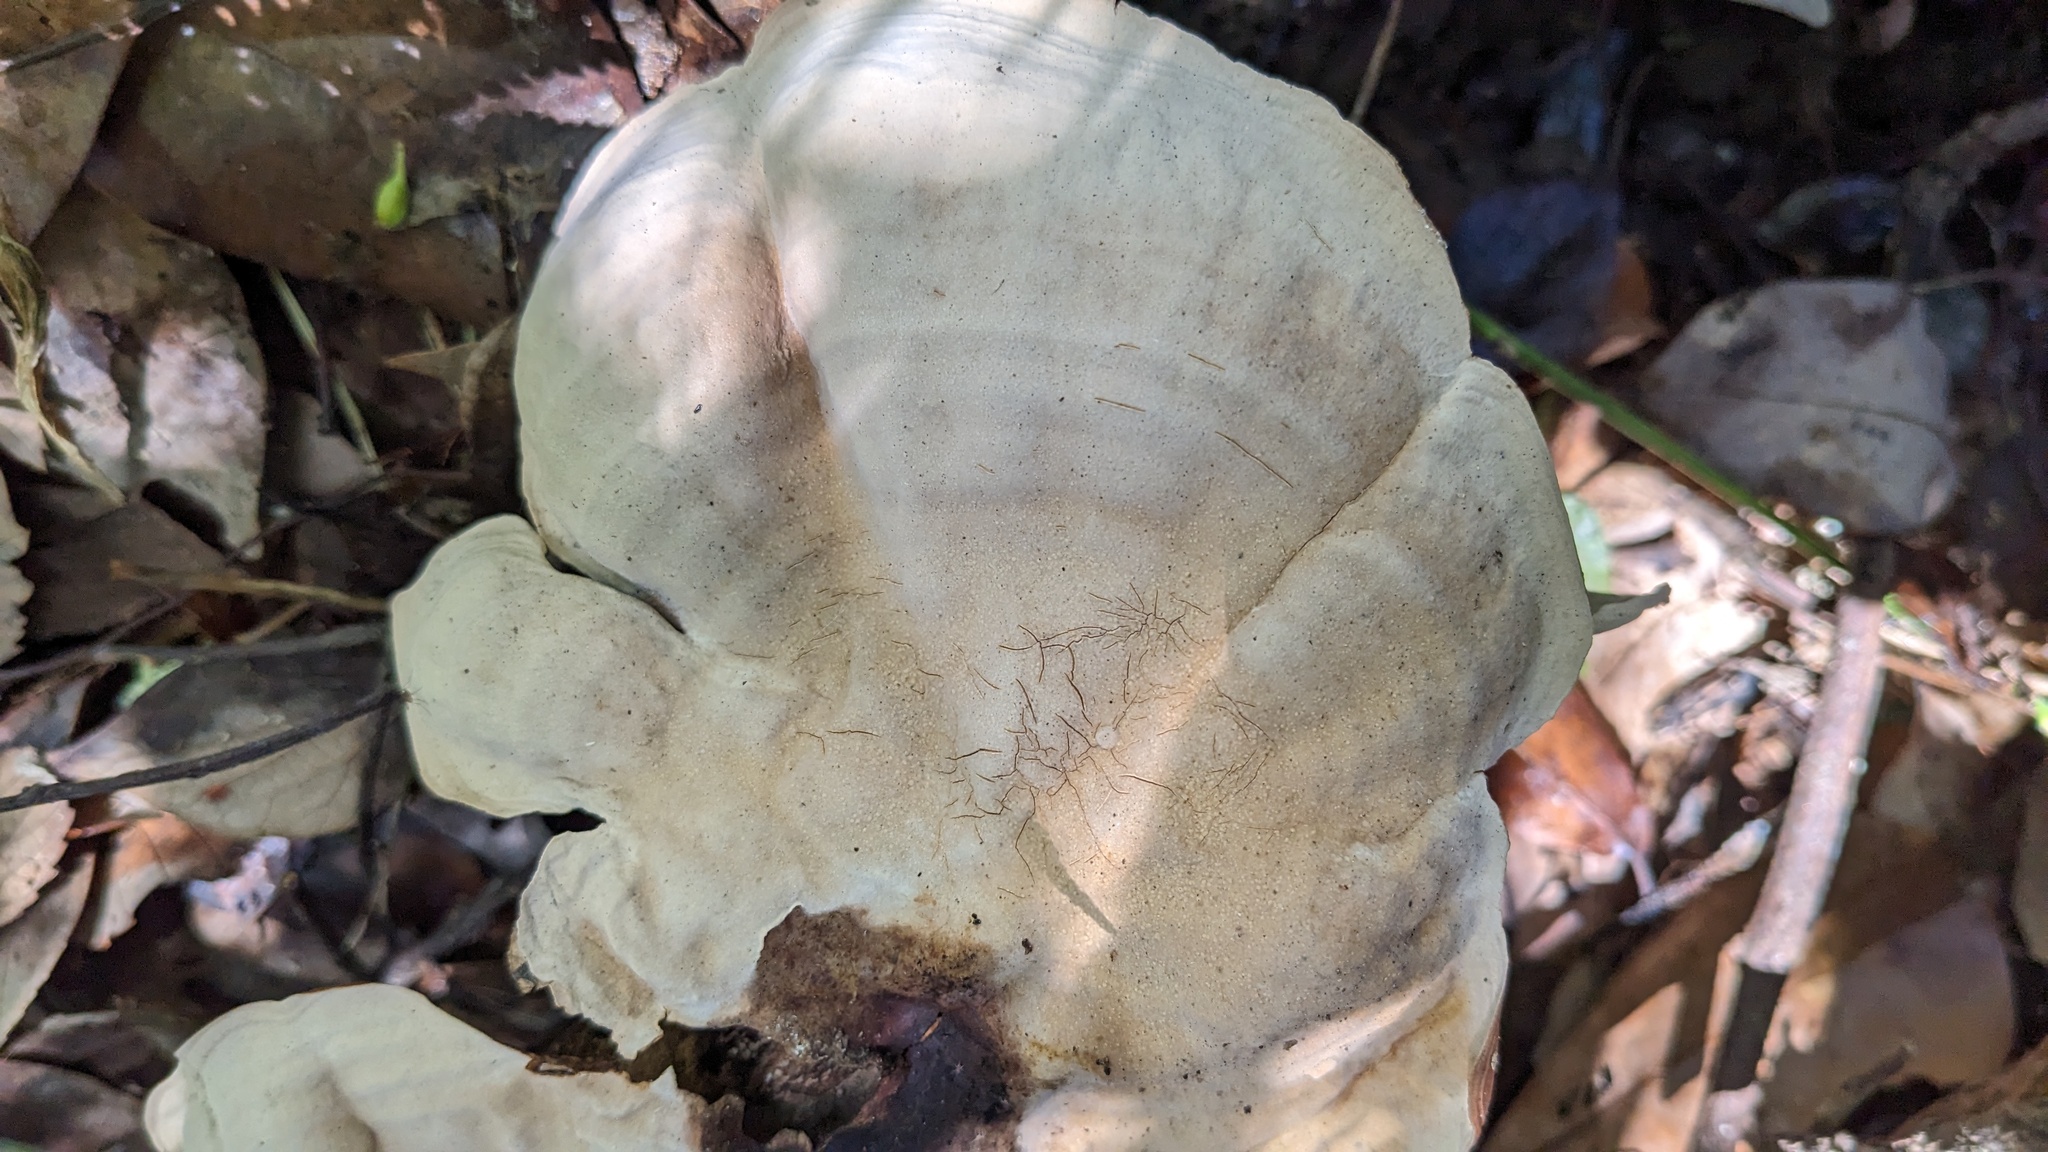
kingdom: Fungi
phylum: Basidiomycota
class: Agaricomycetes
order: Russulales
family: Stereaceae
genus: Stereum
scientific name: Stereum ostrea
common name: False turkeytail
